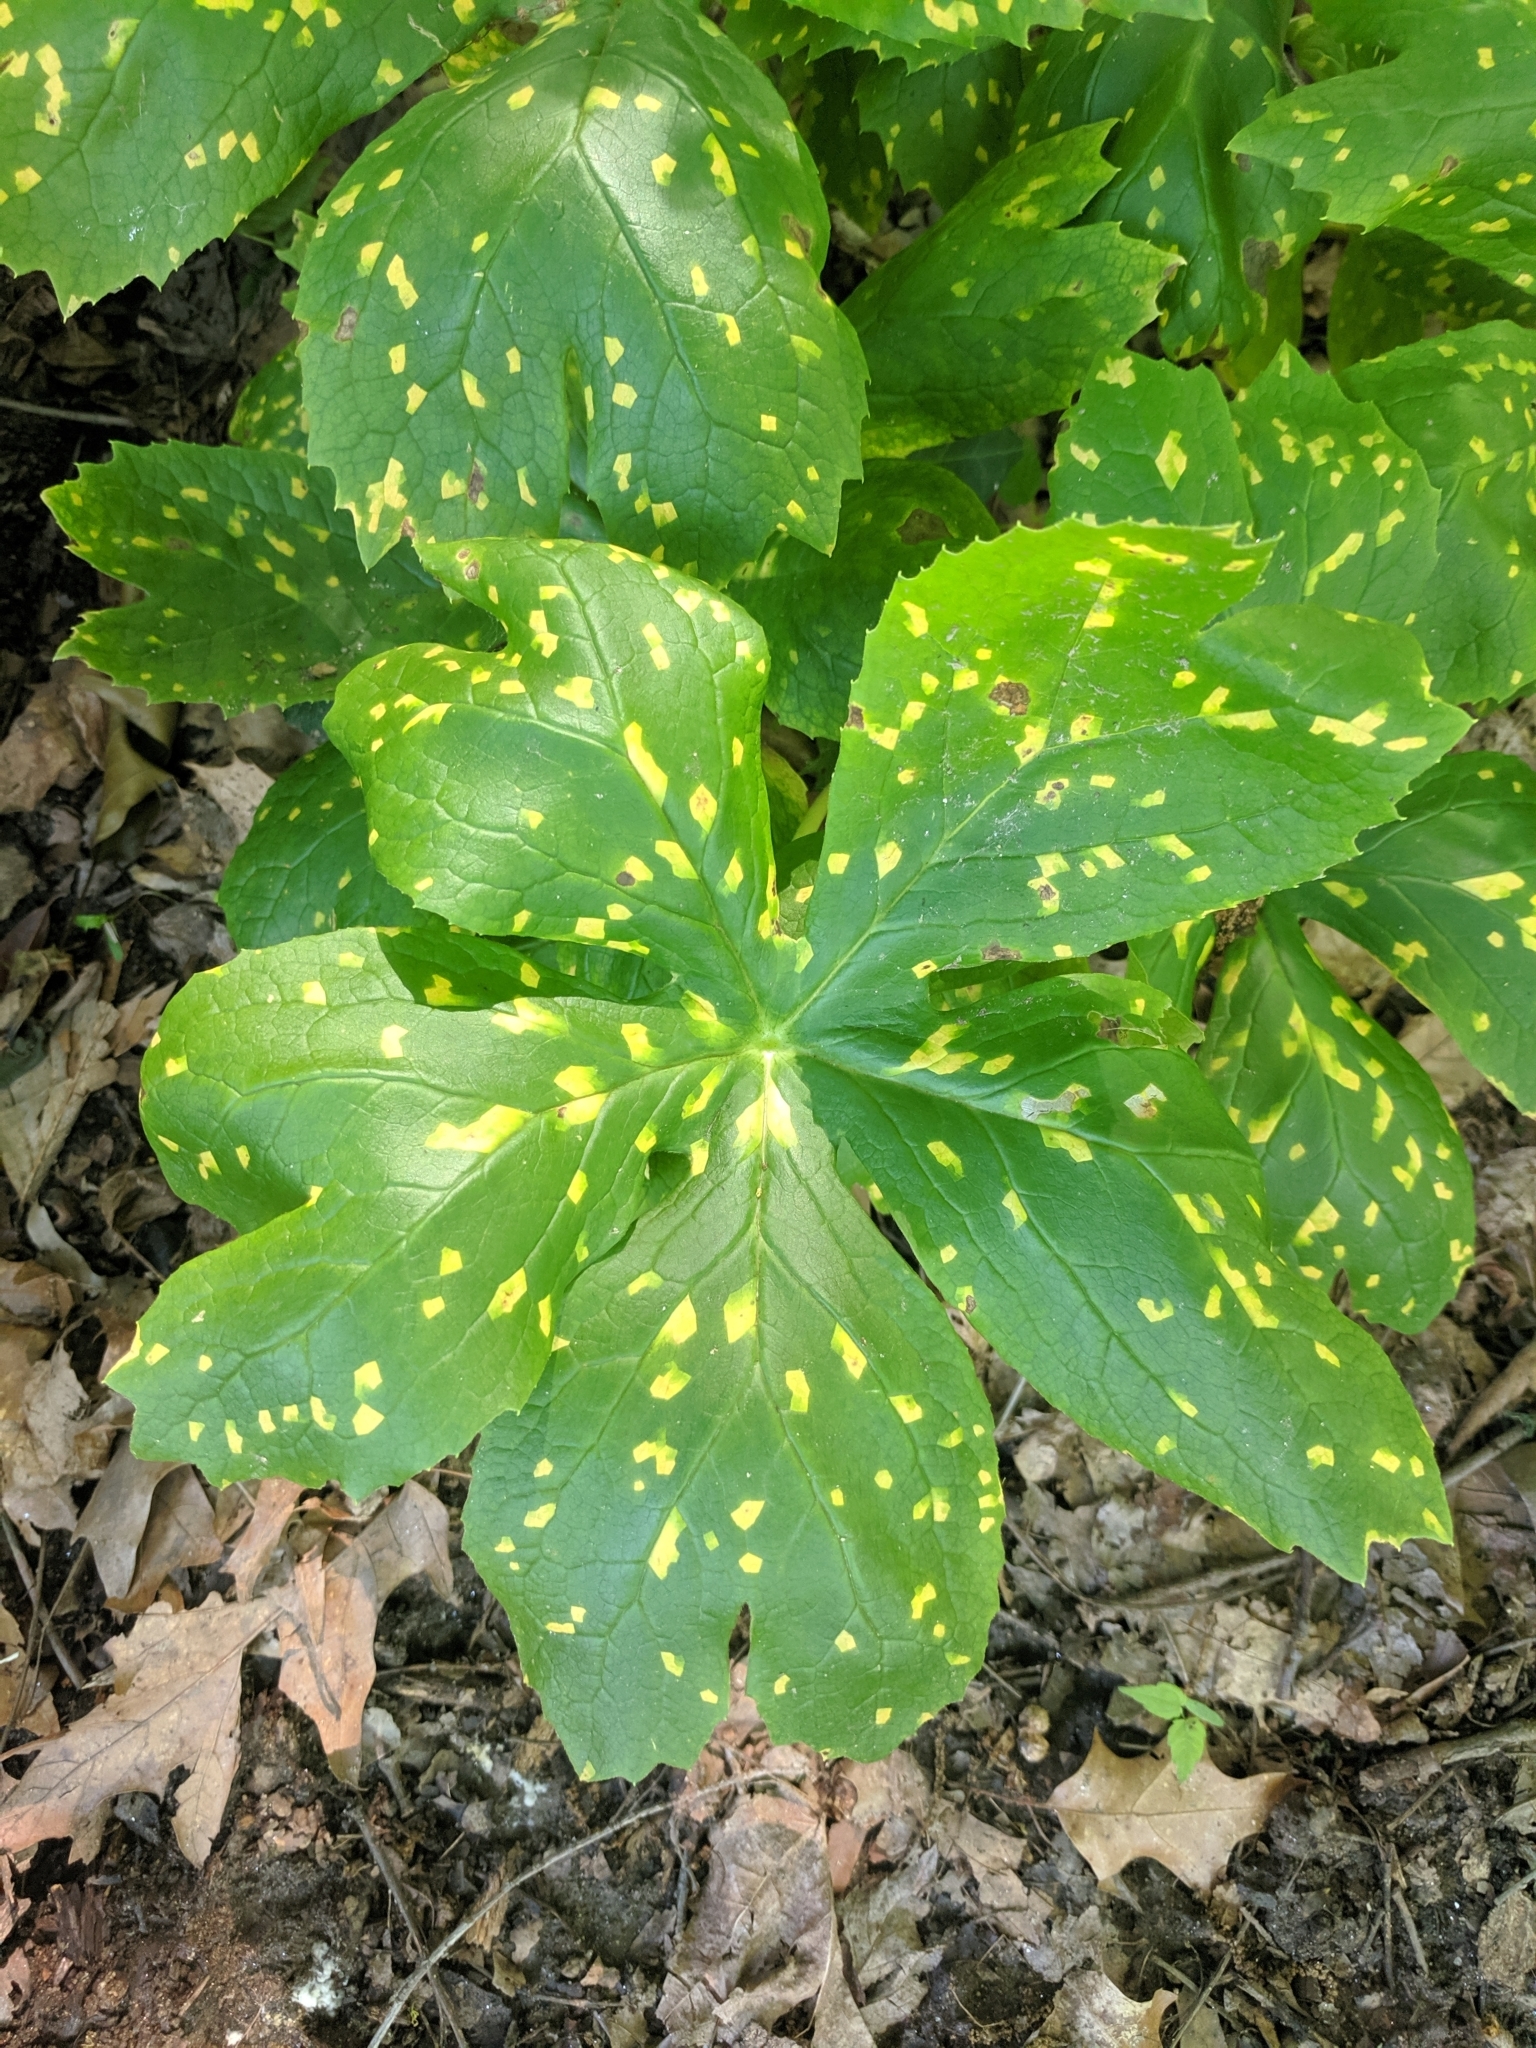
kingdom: Fungi
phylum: Basidiomycota
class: Pucciniomycetes
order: Pucciniales
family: Pucciniaceae
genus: Puccinia
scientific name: Puccinia podophylli
